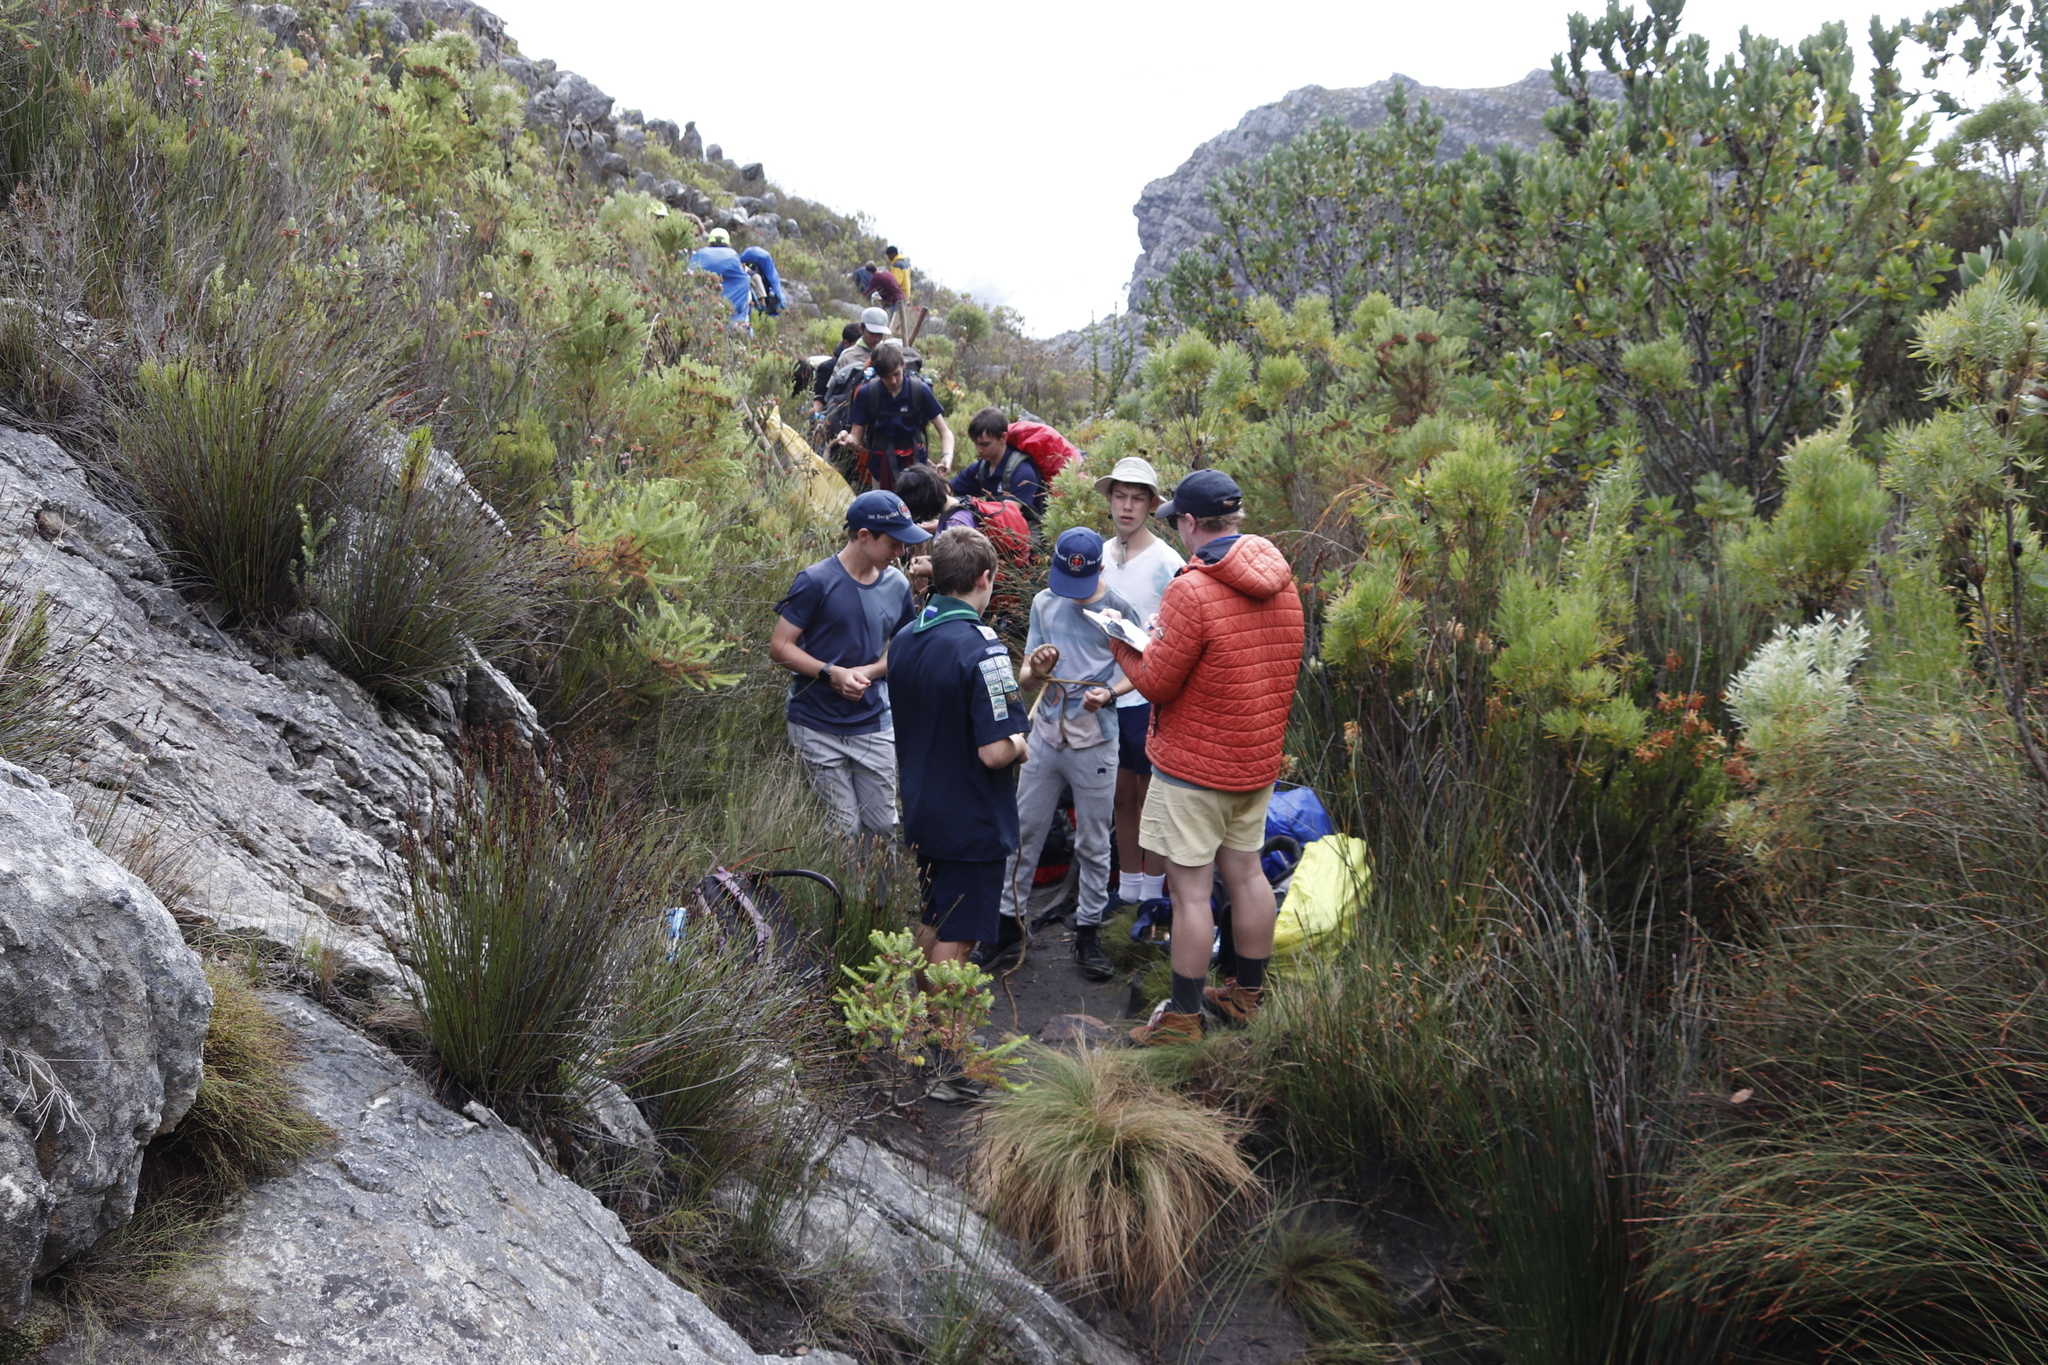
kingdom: Plantae
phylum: Tracheophyta
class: Magnoliopsida
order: Proteales
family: Proteaceae
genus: Leucadendron
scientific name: Leucadendron salicifolium
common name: Common stream conebush
